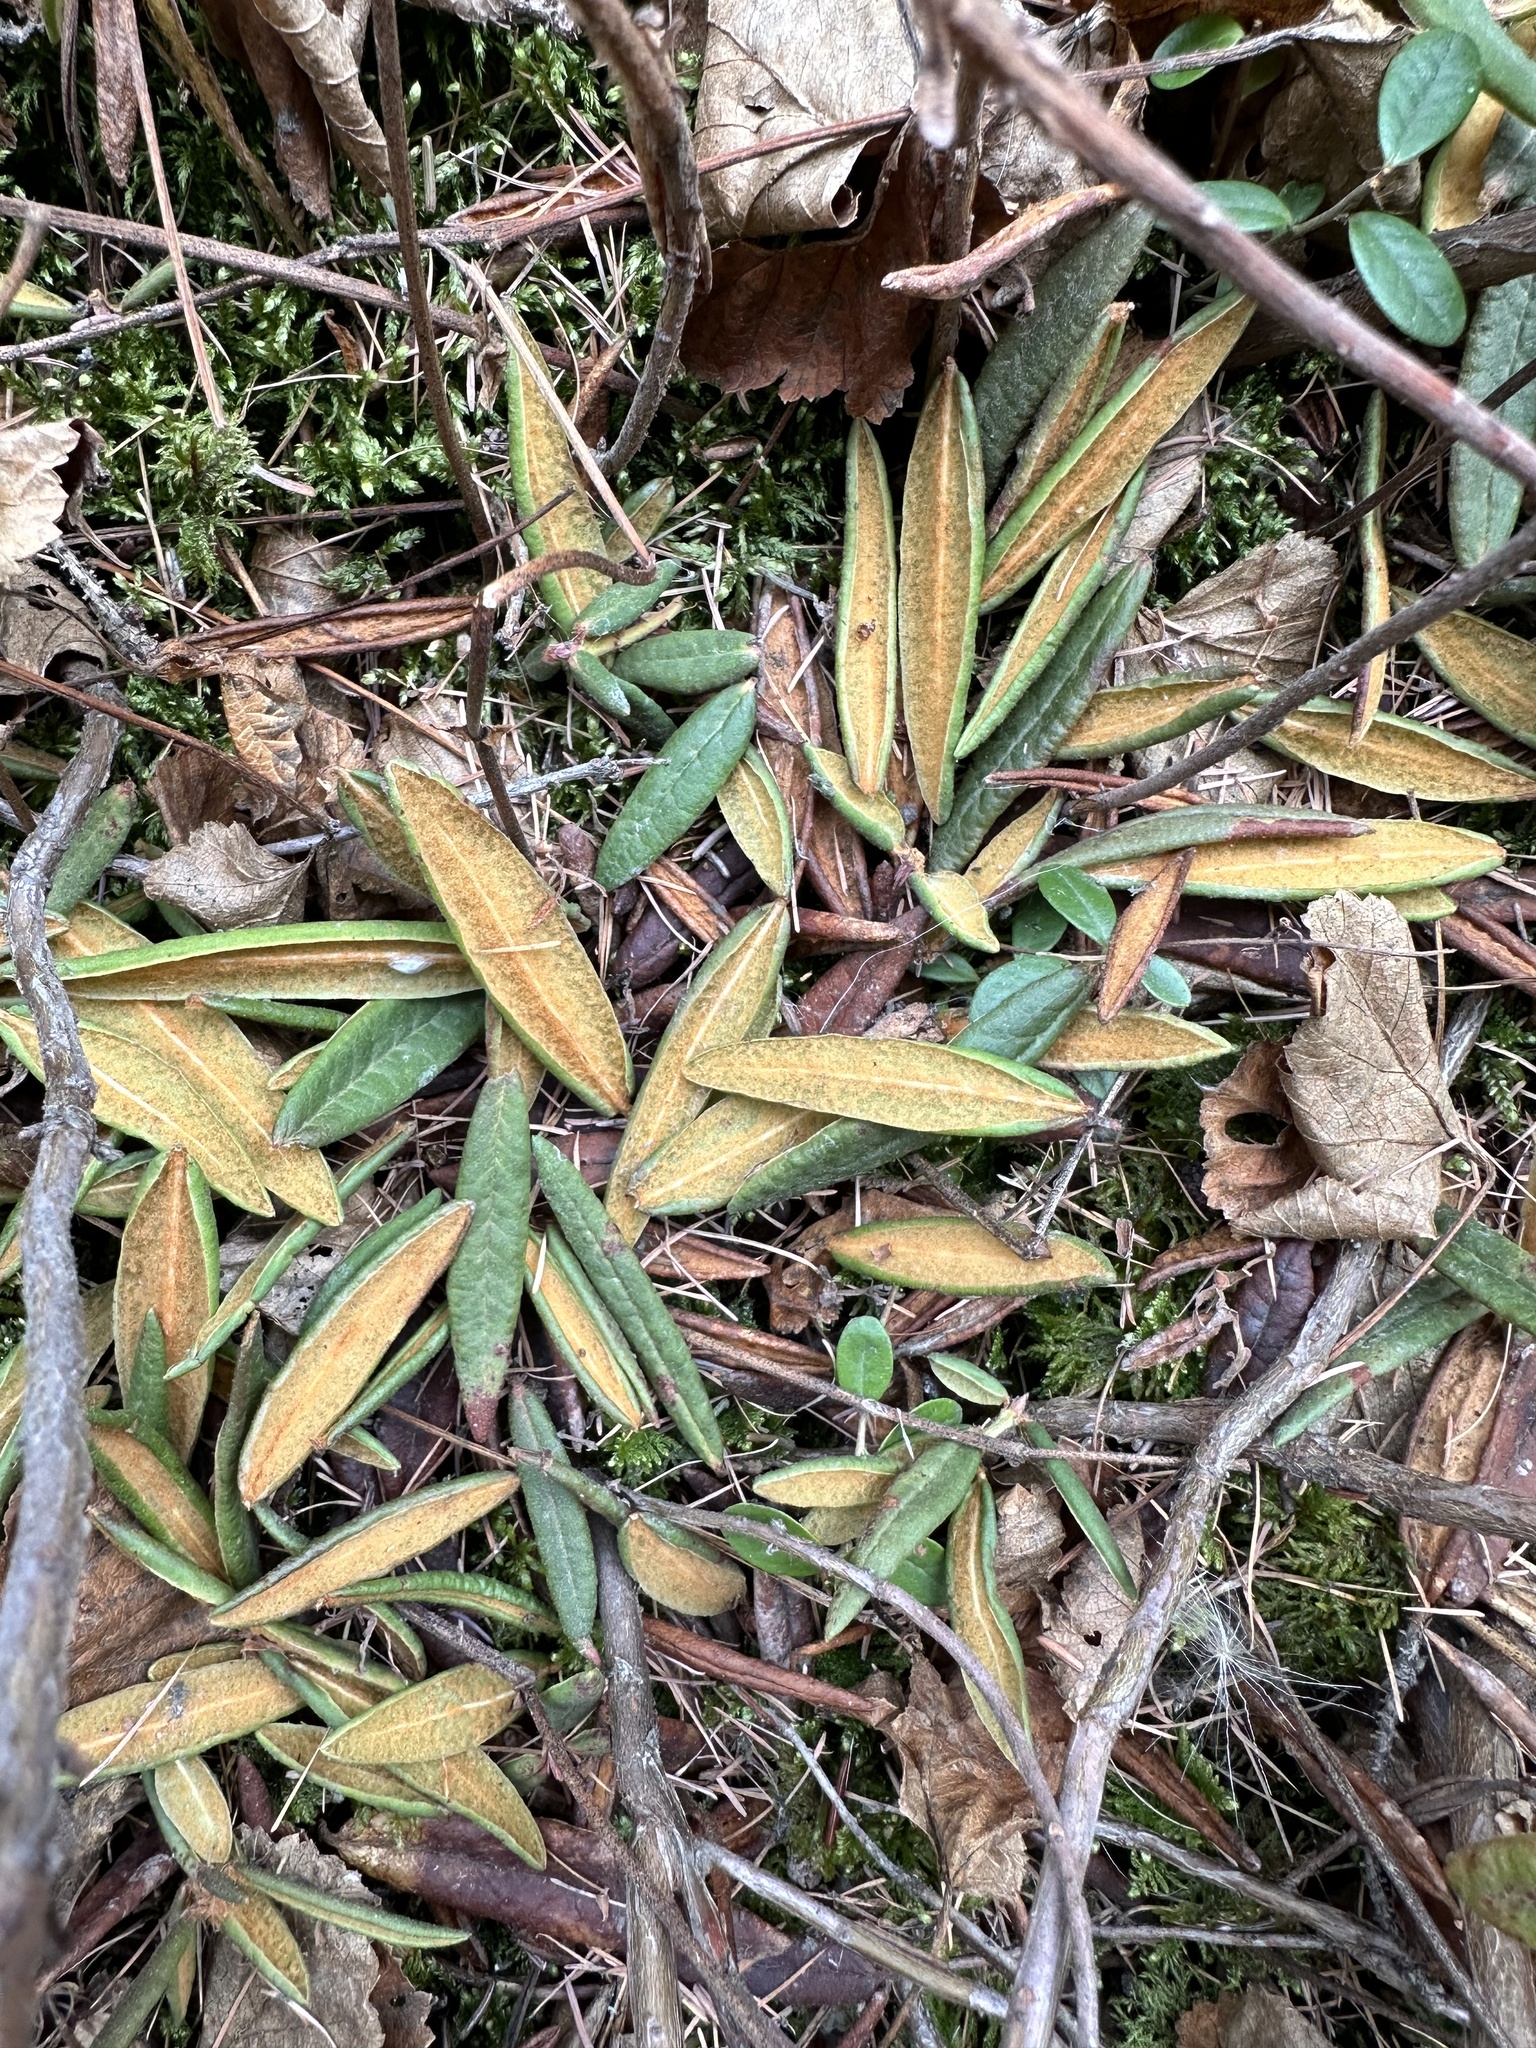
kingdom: Plantae
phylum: Tracheophyta
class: Magnoliopsida
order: Ericales
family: Ericaceae
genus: Rhododendron
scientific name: Rhododendron groenlandicum
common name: Bog labrador tea
